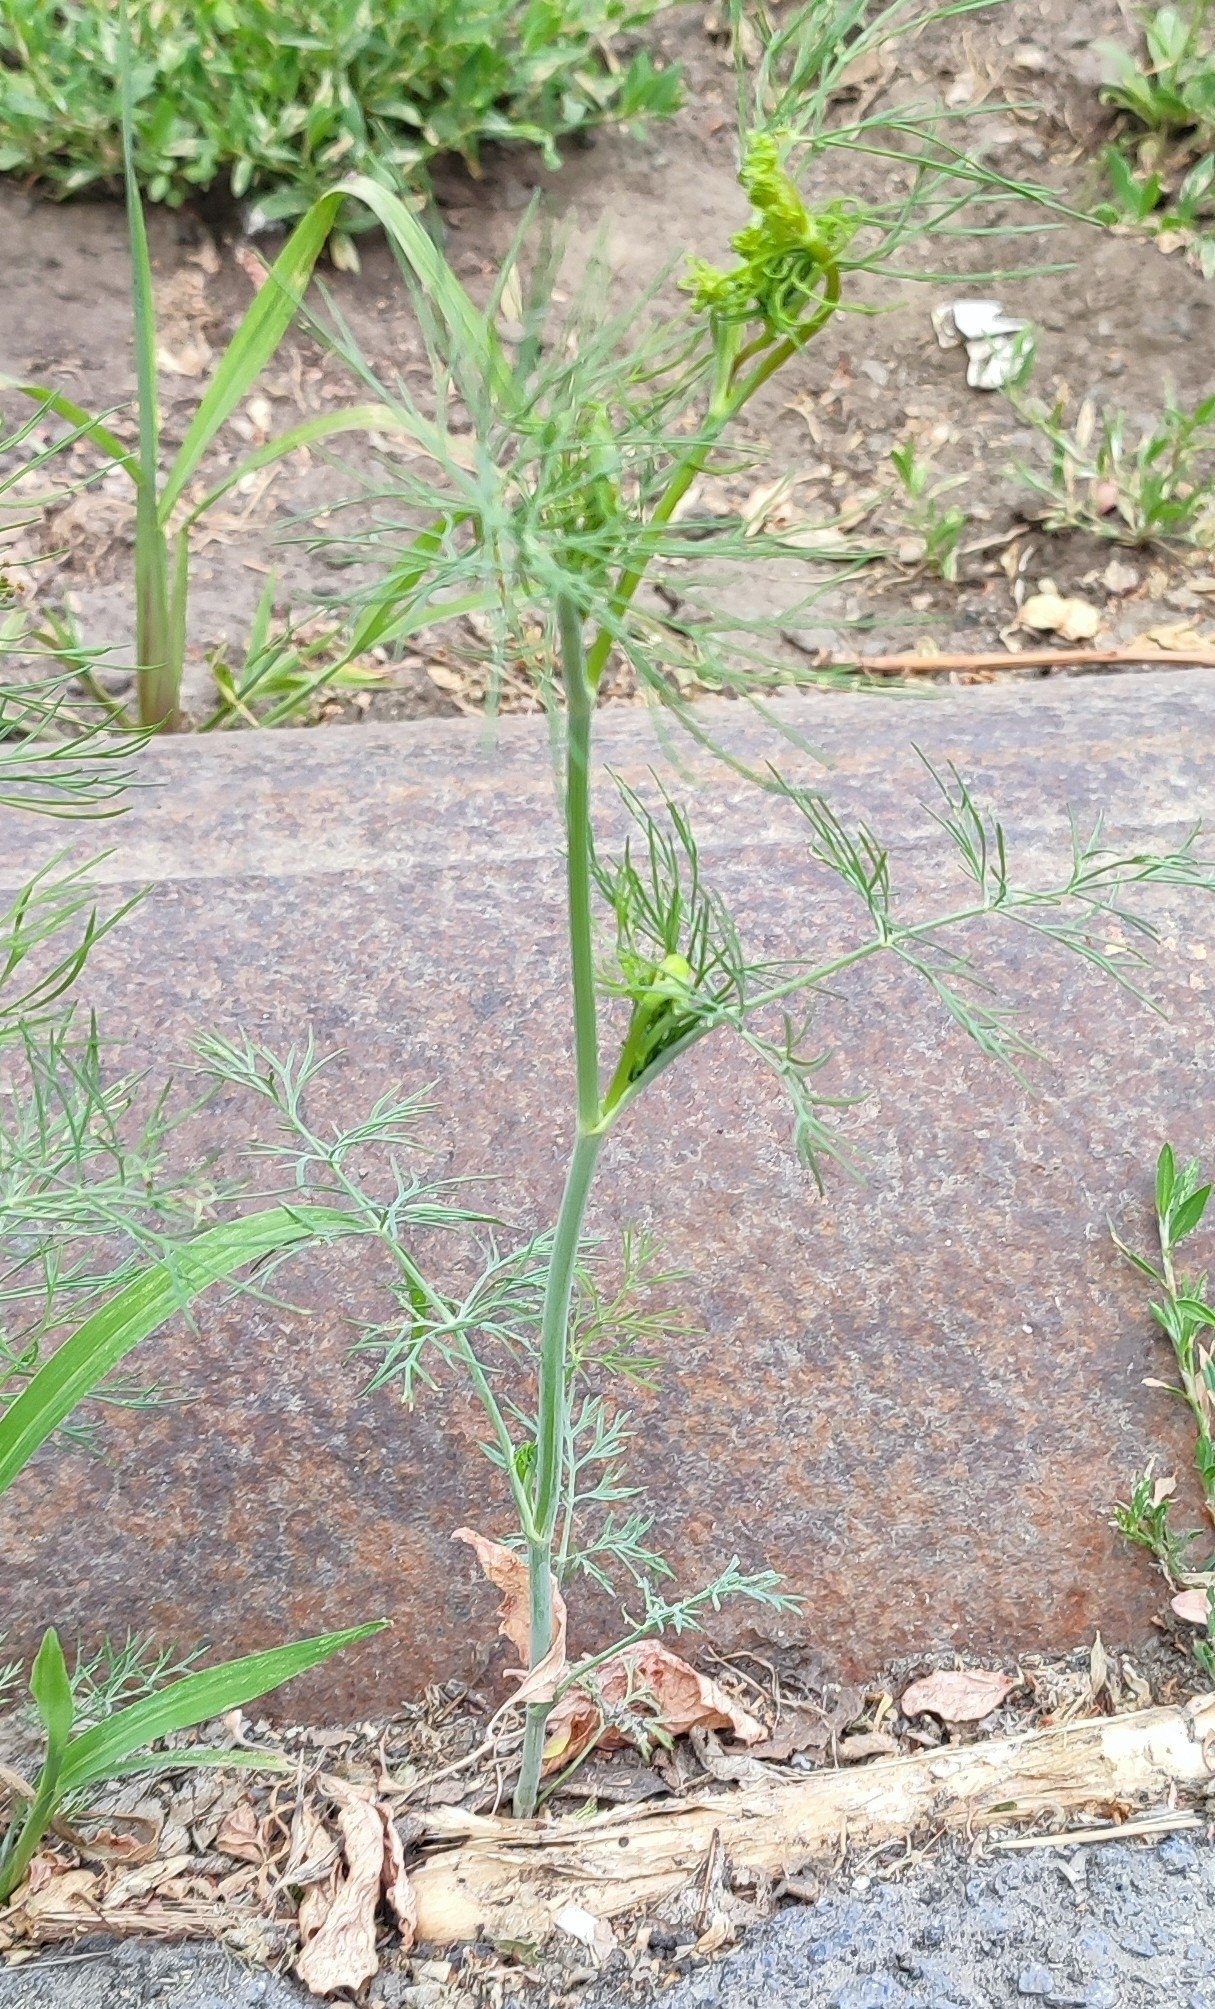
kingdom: Plantae
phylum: Tracheophyta
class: Magnoliopsida
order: Apiales
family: Apiaceae
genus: Anethum
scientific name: Anethum graveolens
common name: Dill
